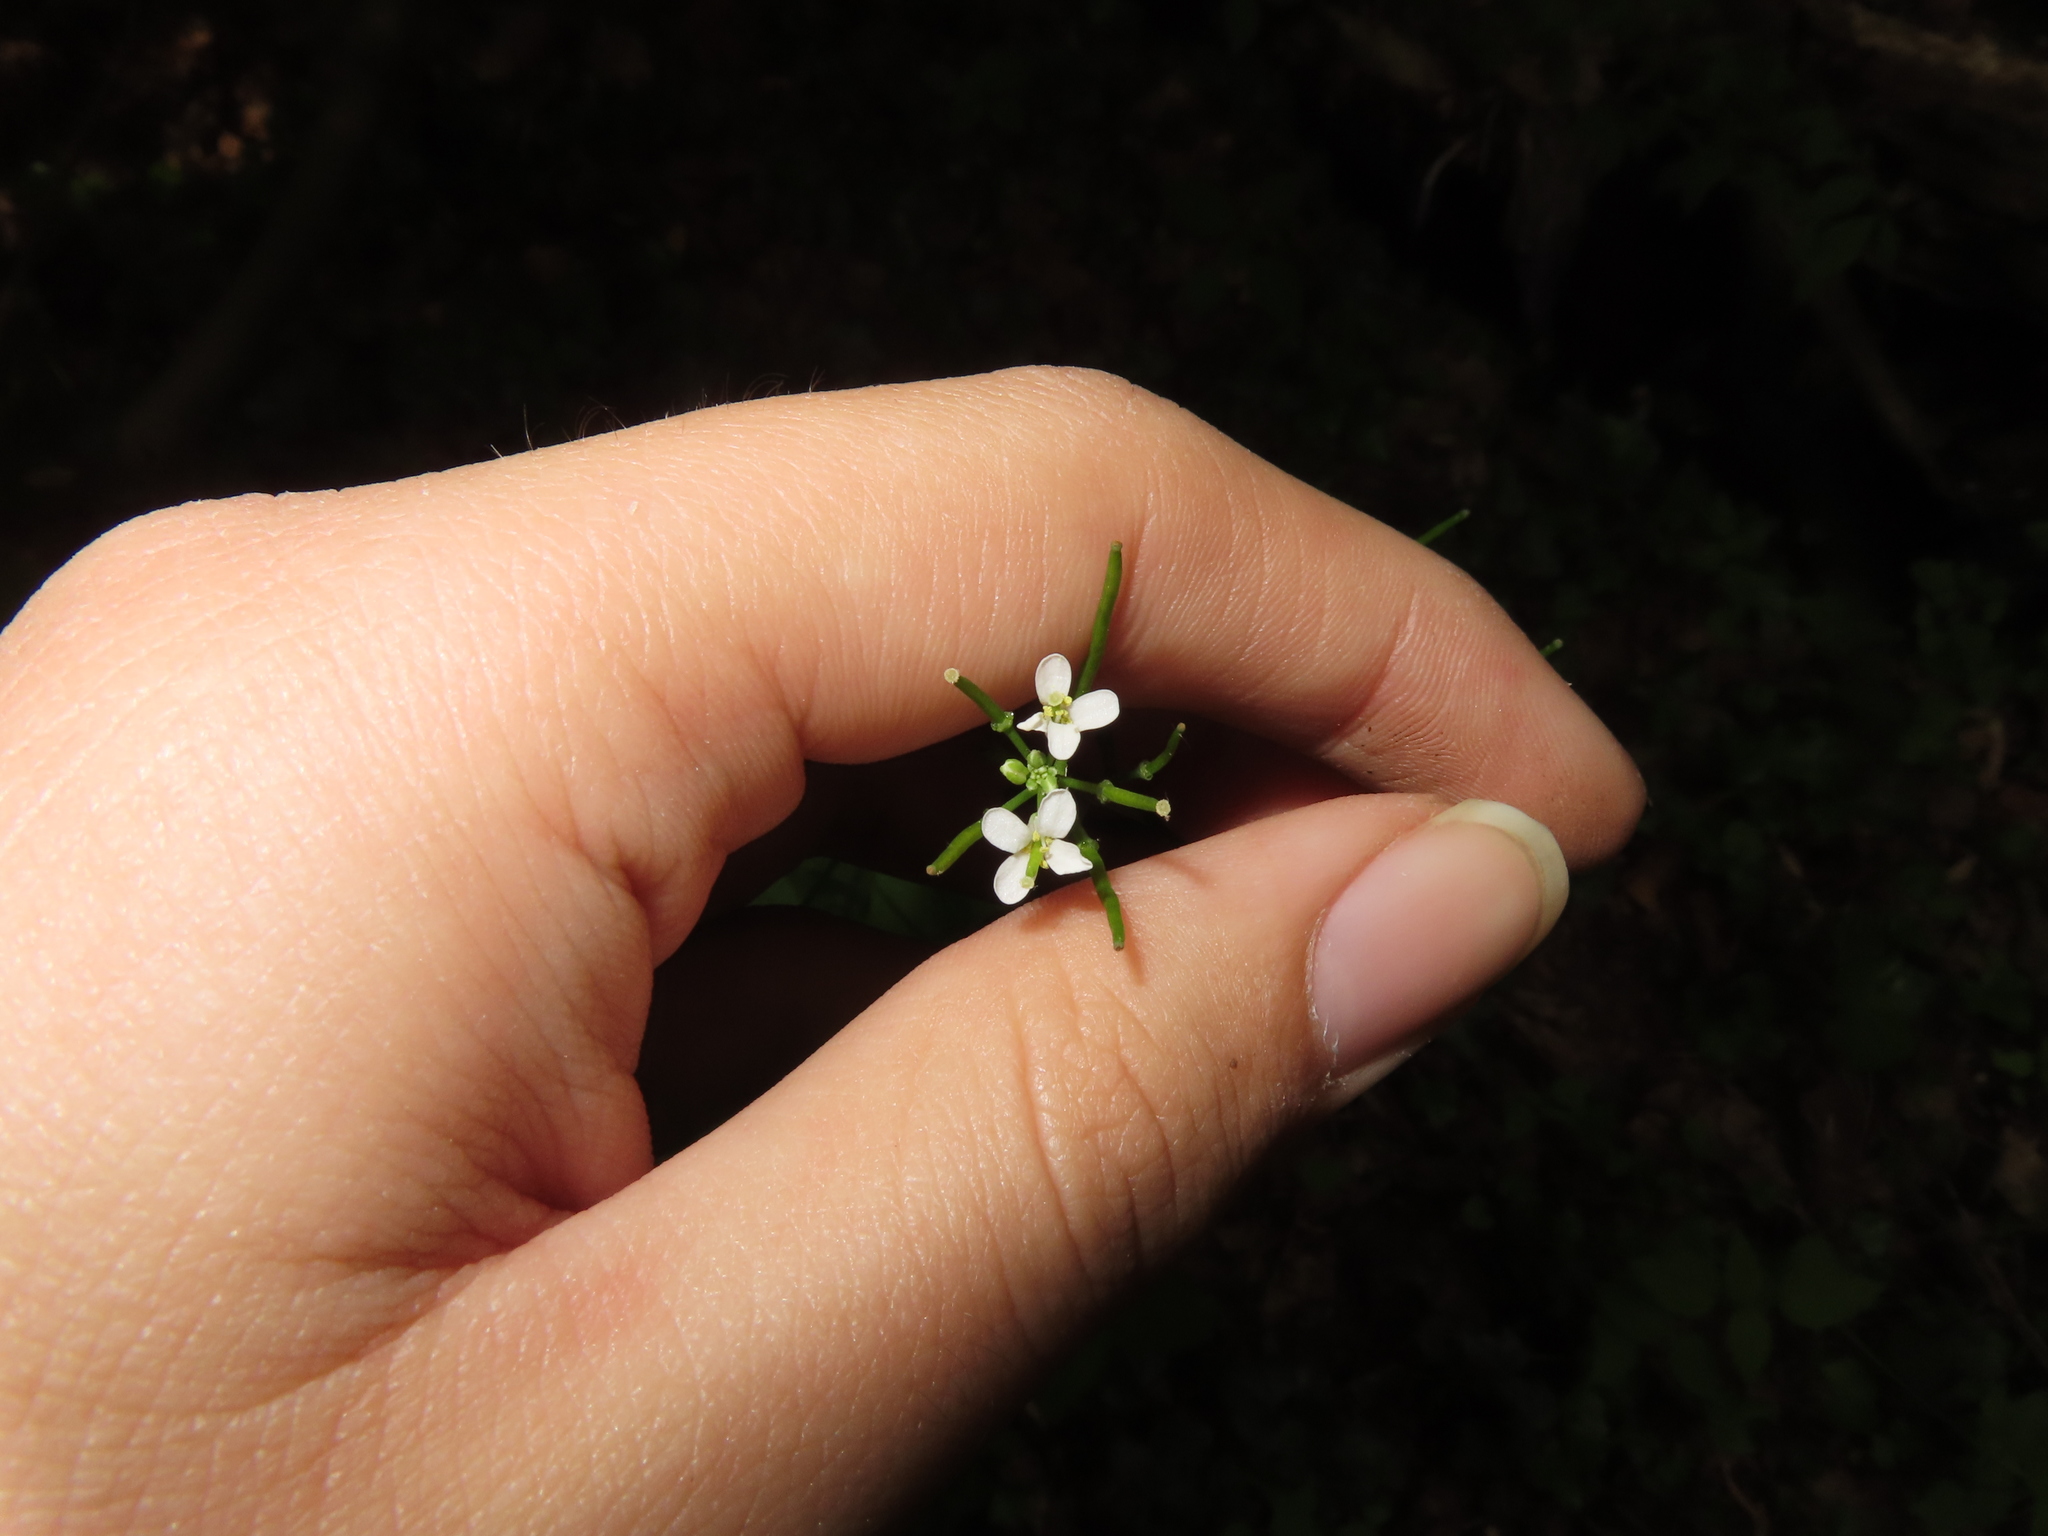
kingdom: Plantae
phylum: Tracheophyta
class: Magnoliopsida
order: Brassicales
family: Brassicaceae
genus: Alliaria
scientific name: Alliaria petiolata
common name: Garlic mustard
